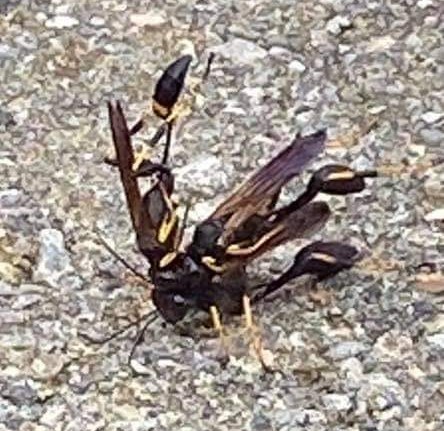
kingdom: Animalia
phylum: Arthropoda
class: Insecta
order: Hymenoptera
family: Sphecidae
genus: Sceliphron
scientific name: Sceliphron caementarium
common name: Mud dauber
